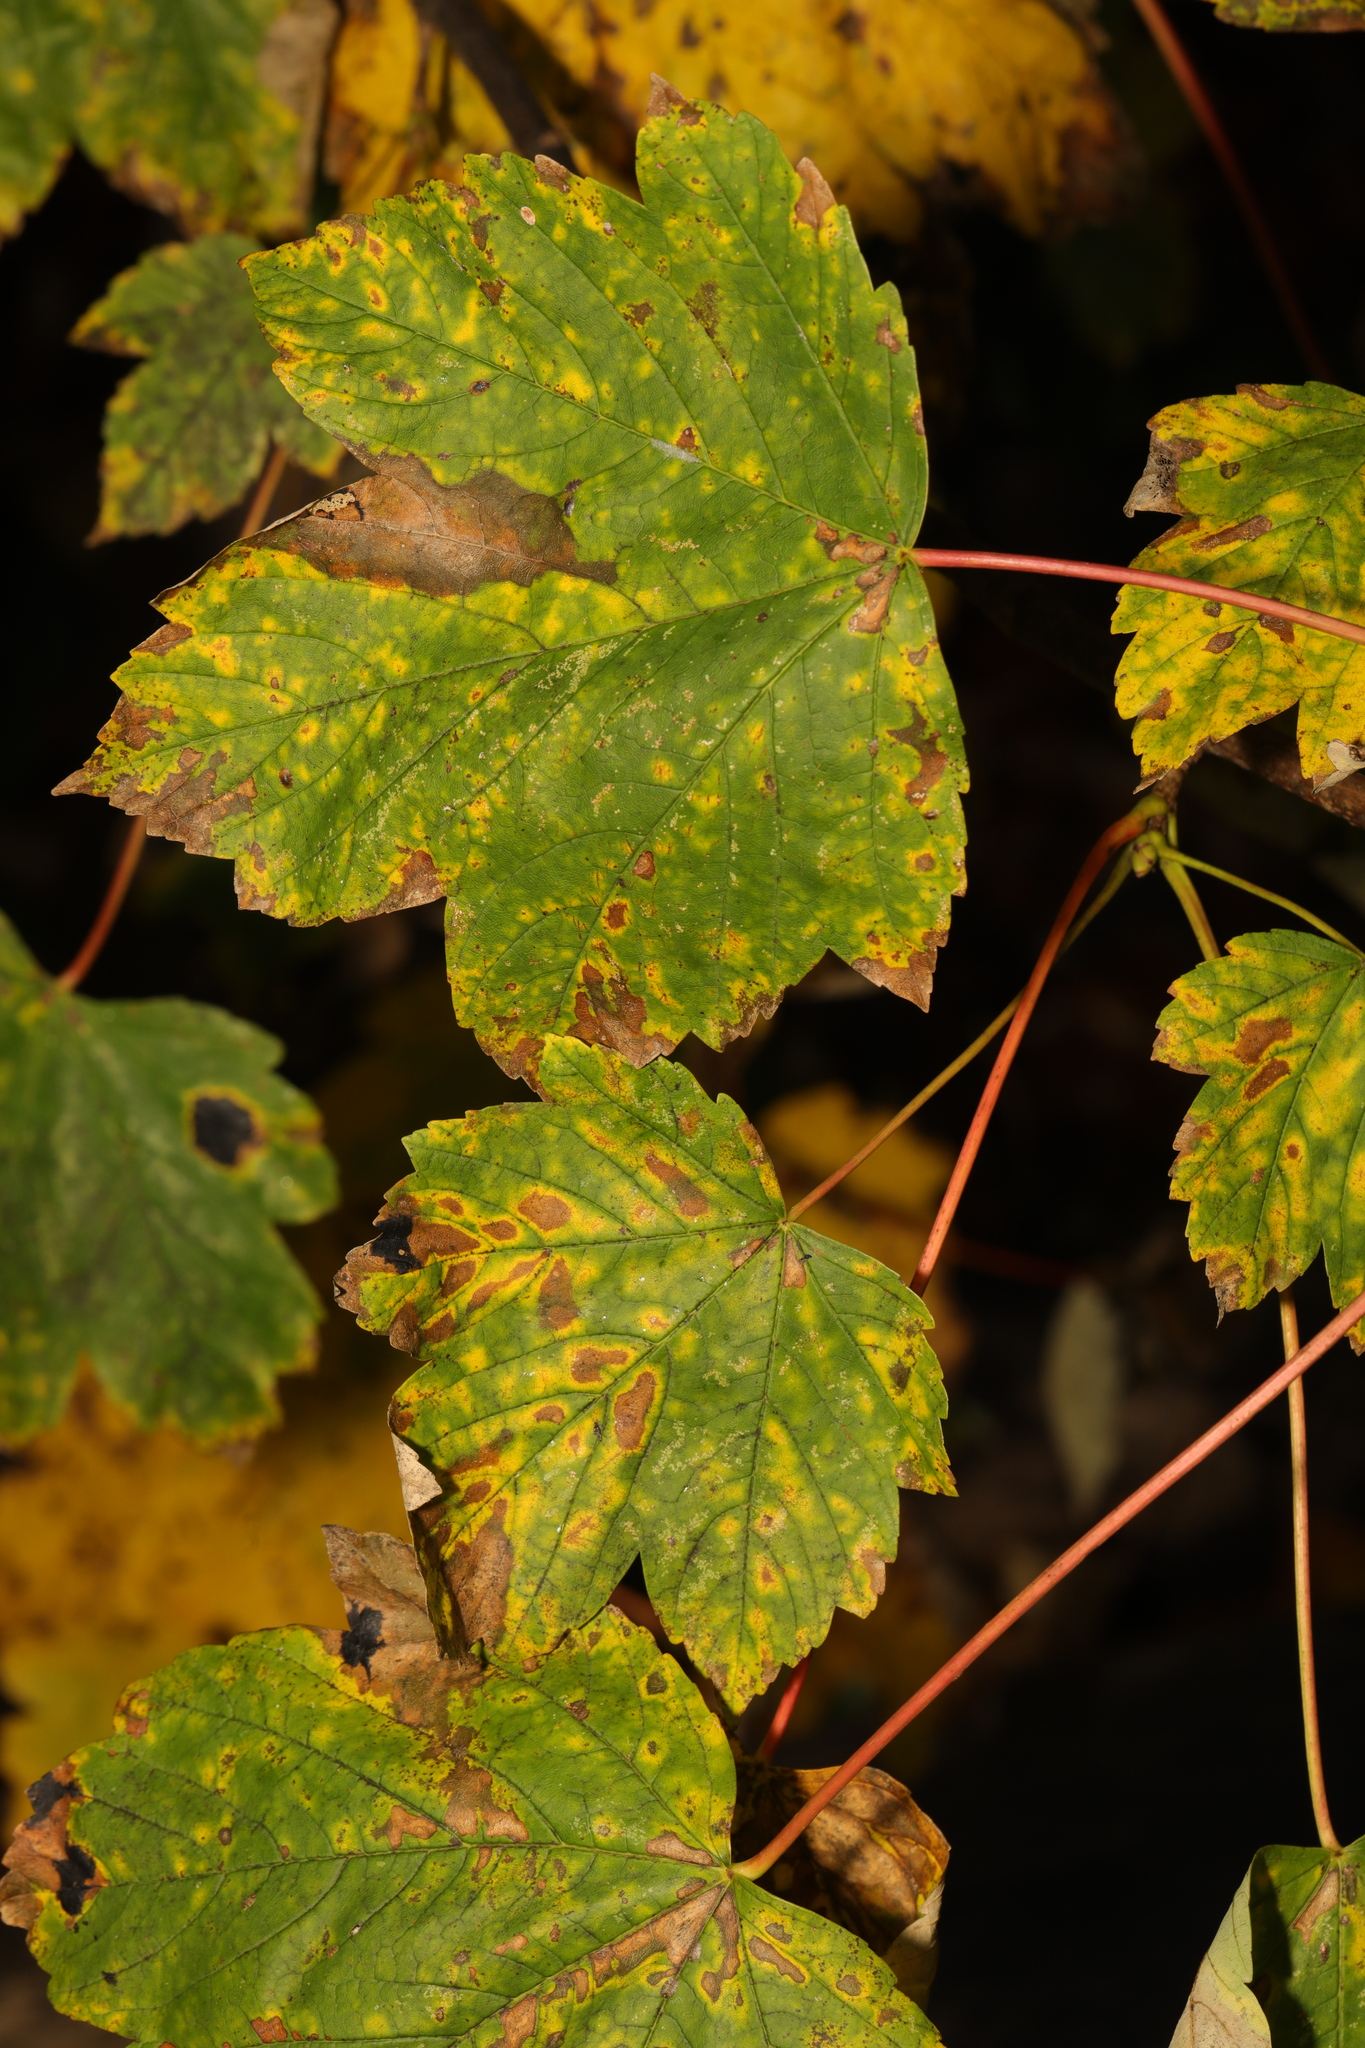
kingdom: Plantae
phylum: Tracheophyta
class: Magnoliopsida
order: Sapindales
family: Sapindaceae
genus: Acer
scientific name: Acer pseudoplatanus
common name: Sycamore
